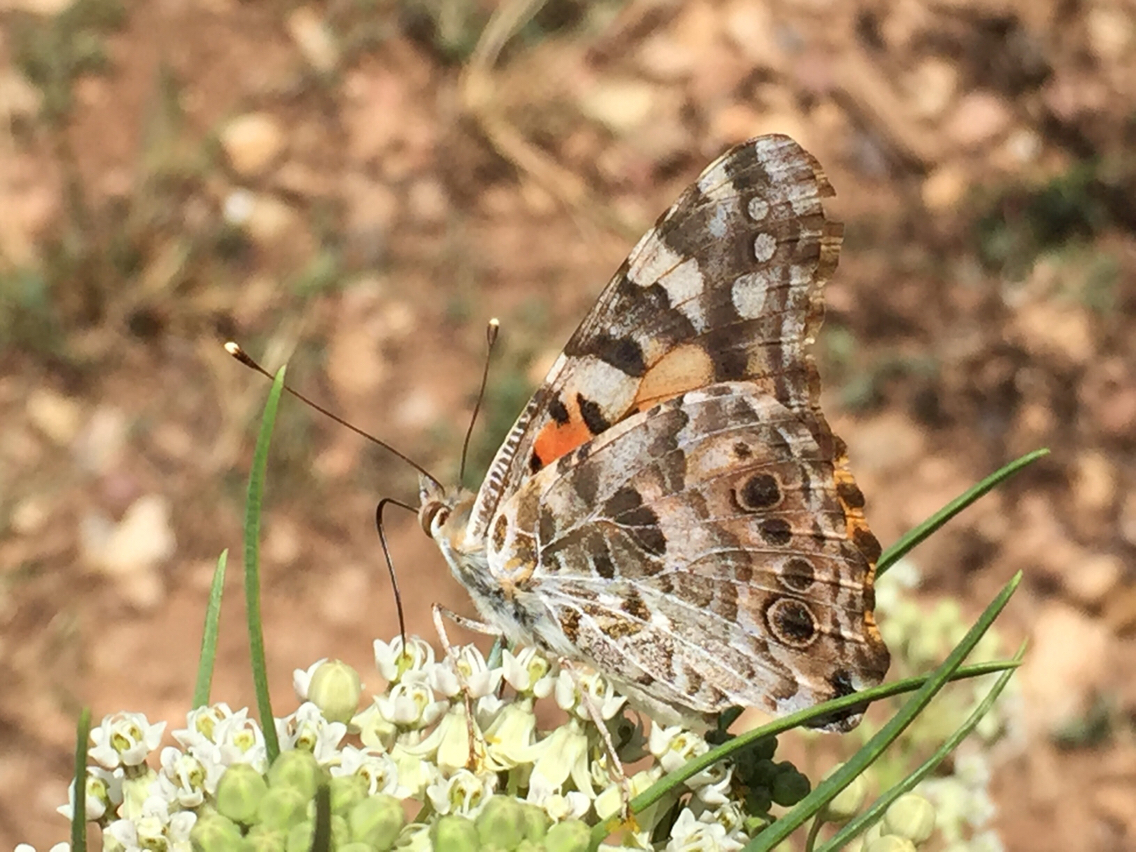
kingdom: Animalia
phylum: Arthropoda
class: Insecta
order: Lepidoptera
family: Nymphalidae
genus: Vanessa
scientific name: Vanessa cardui
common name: Painted lady
